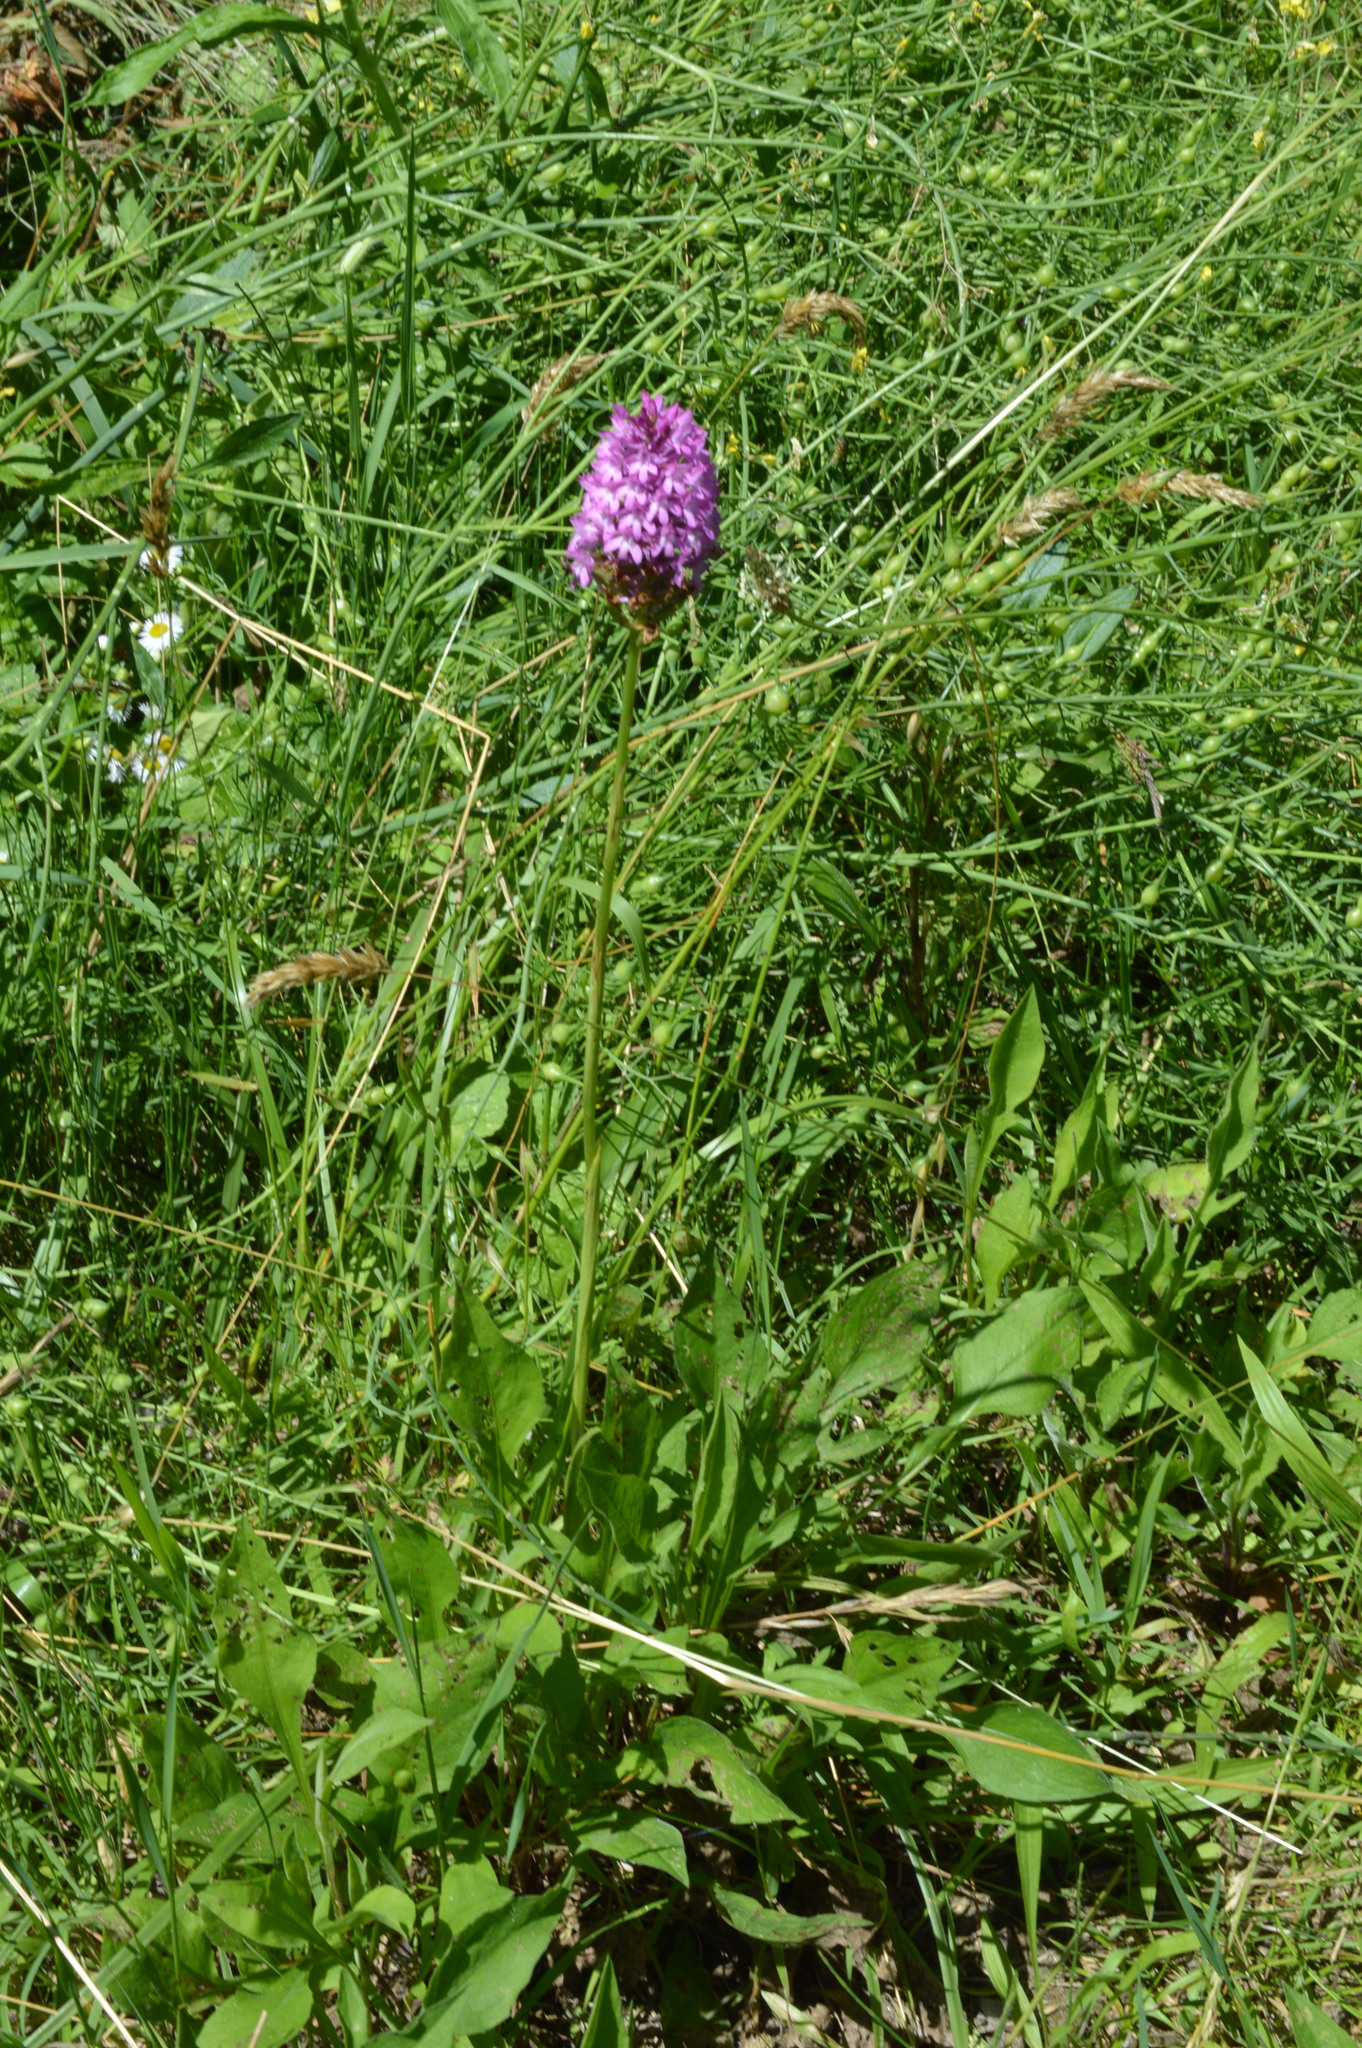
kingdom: Plantae
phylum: Tracheophyta
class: Liliopsida
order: Asparagales
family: Orchidaceae
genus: Anacamptis
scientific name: Anacamptis pyramidalis
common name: Pyramidal orchid
